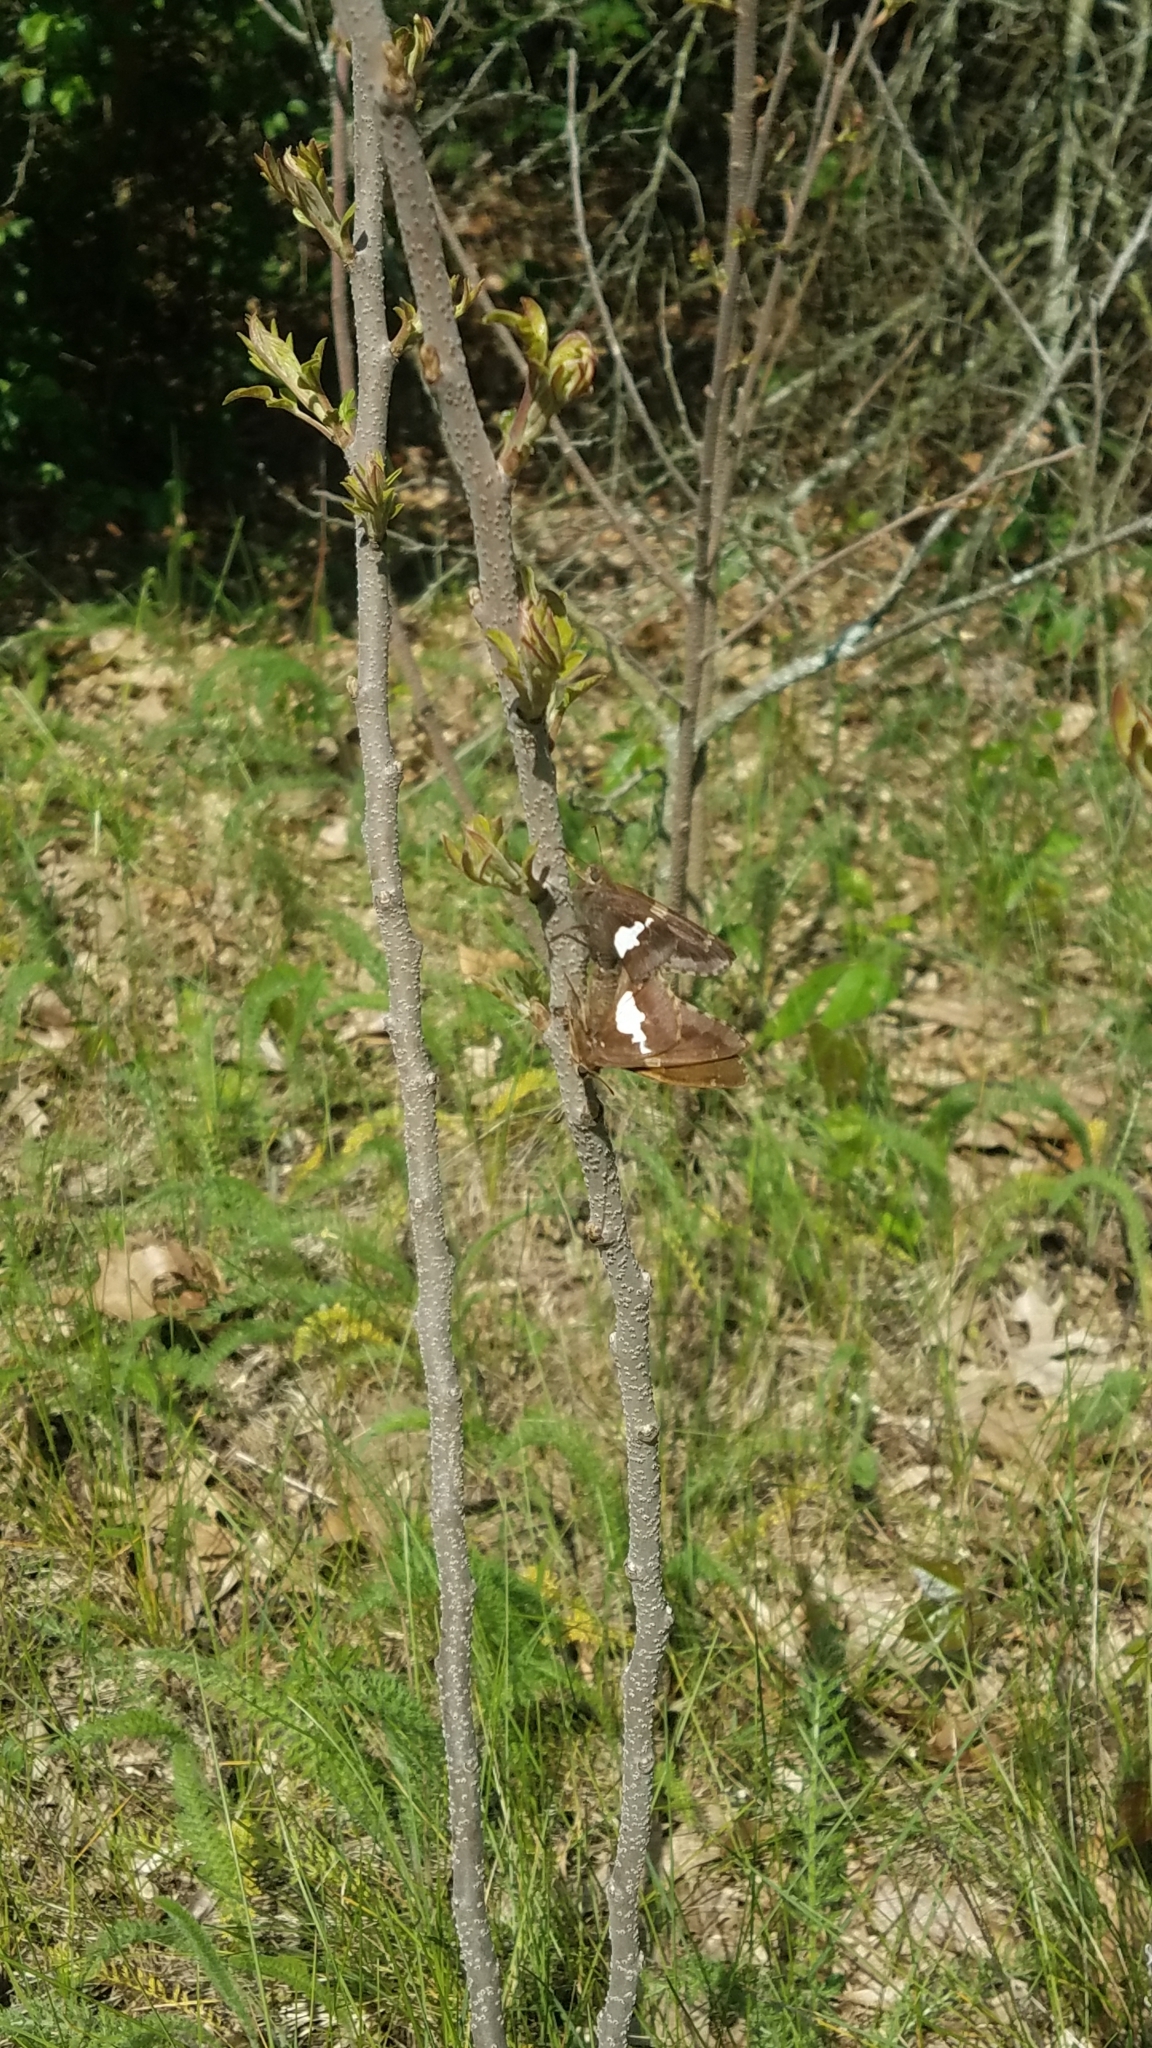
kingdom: Animalia
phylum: Arthropoda
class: Insecta
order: Lepidoptera
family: Hesperiidae
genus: Epargyreus
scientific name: Epargyreus clarus
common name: Silver-spotted skipper
